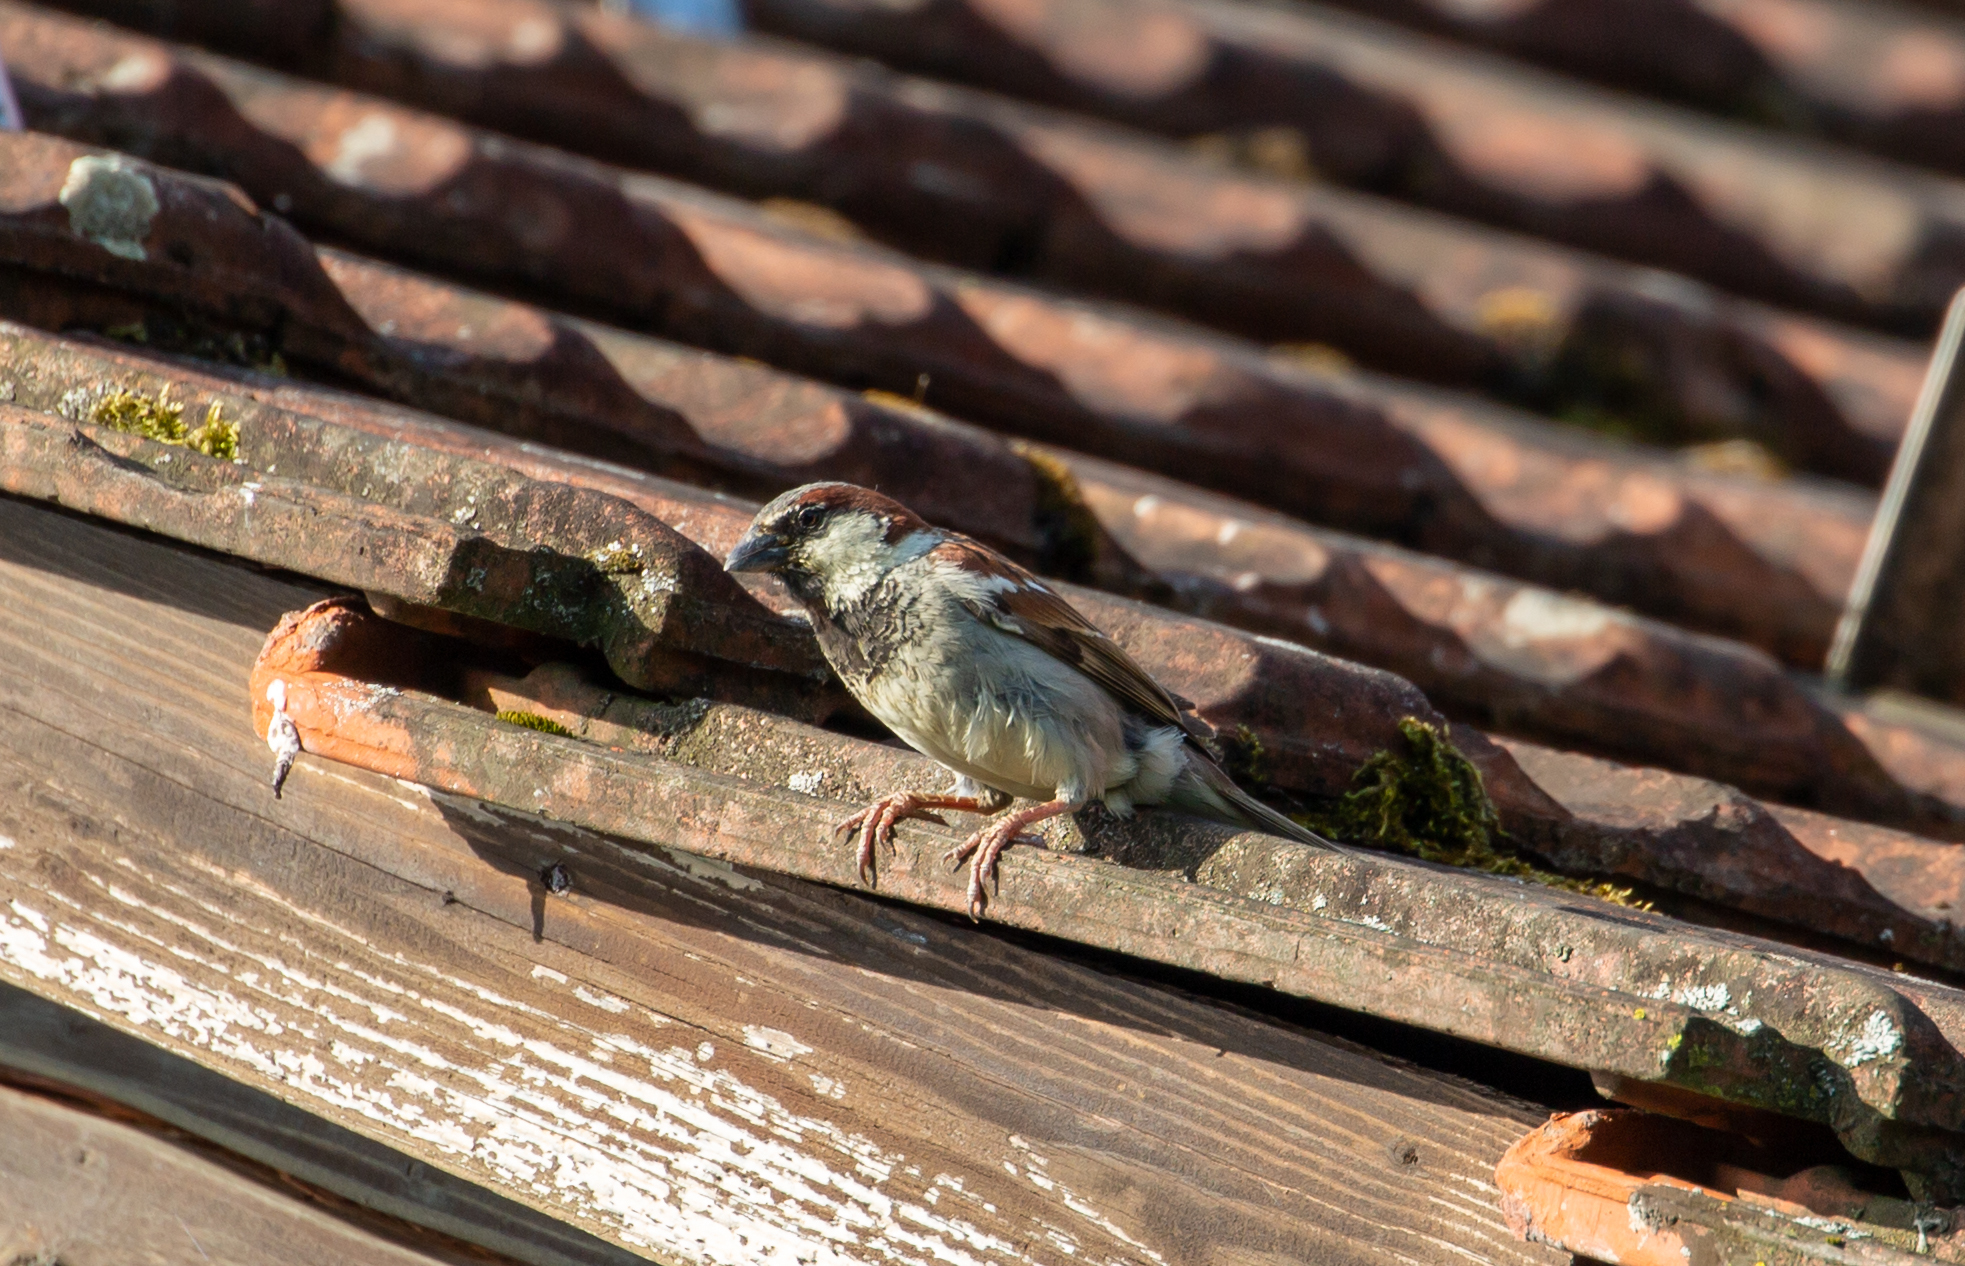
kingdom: Animalia
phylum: Chordata
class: Aves
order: Passeriformes
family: Passeridae
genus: Passer
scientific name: Passer domesticus
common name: House sparrow
